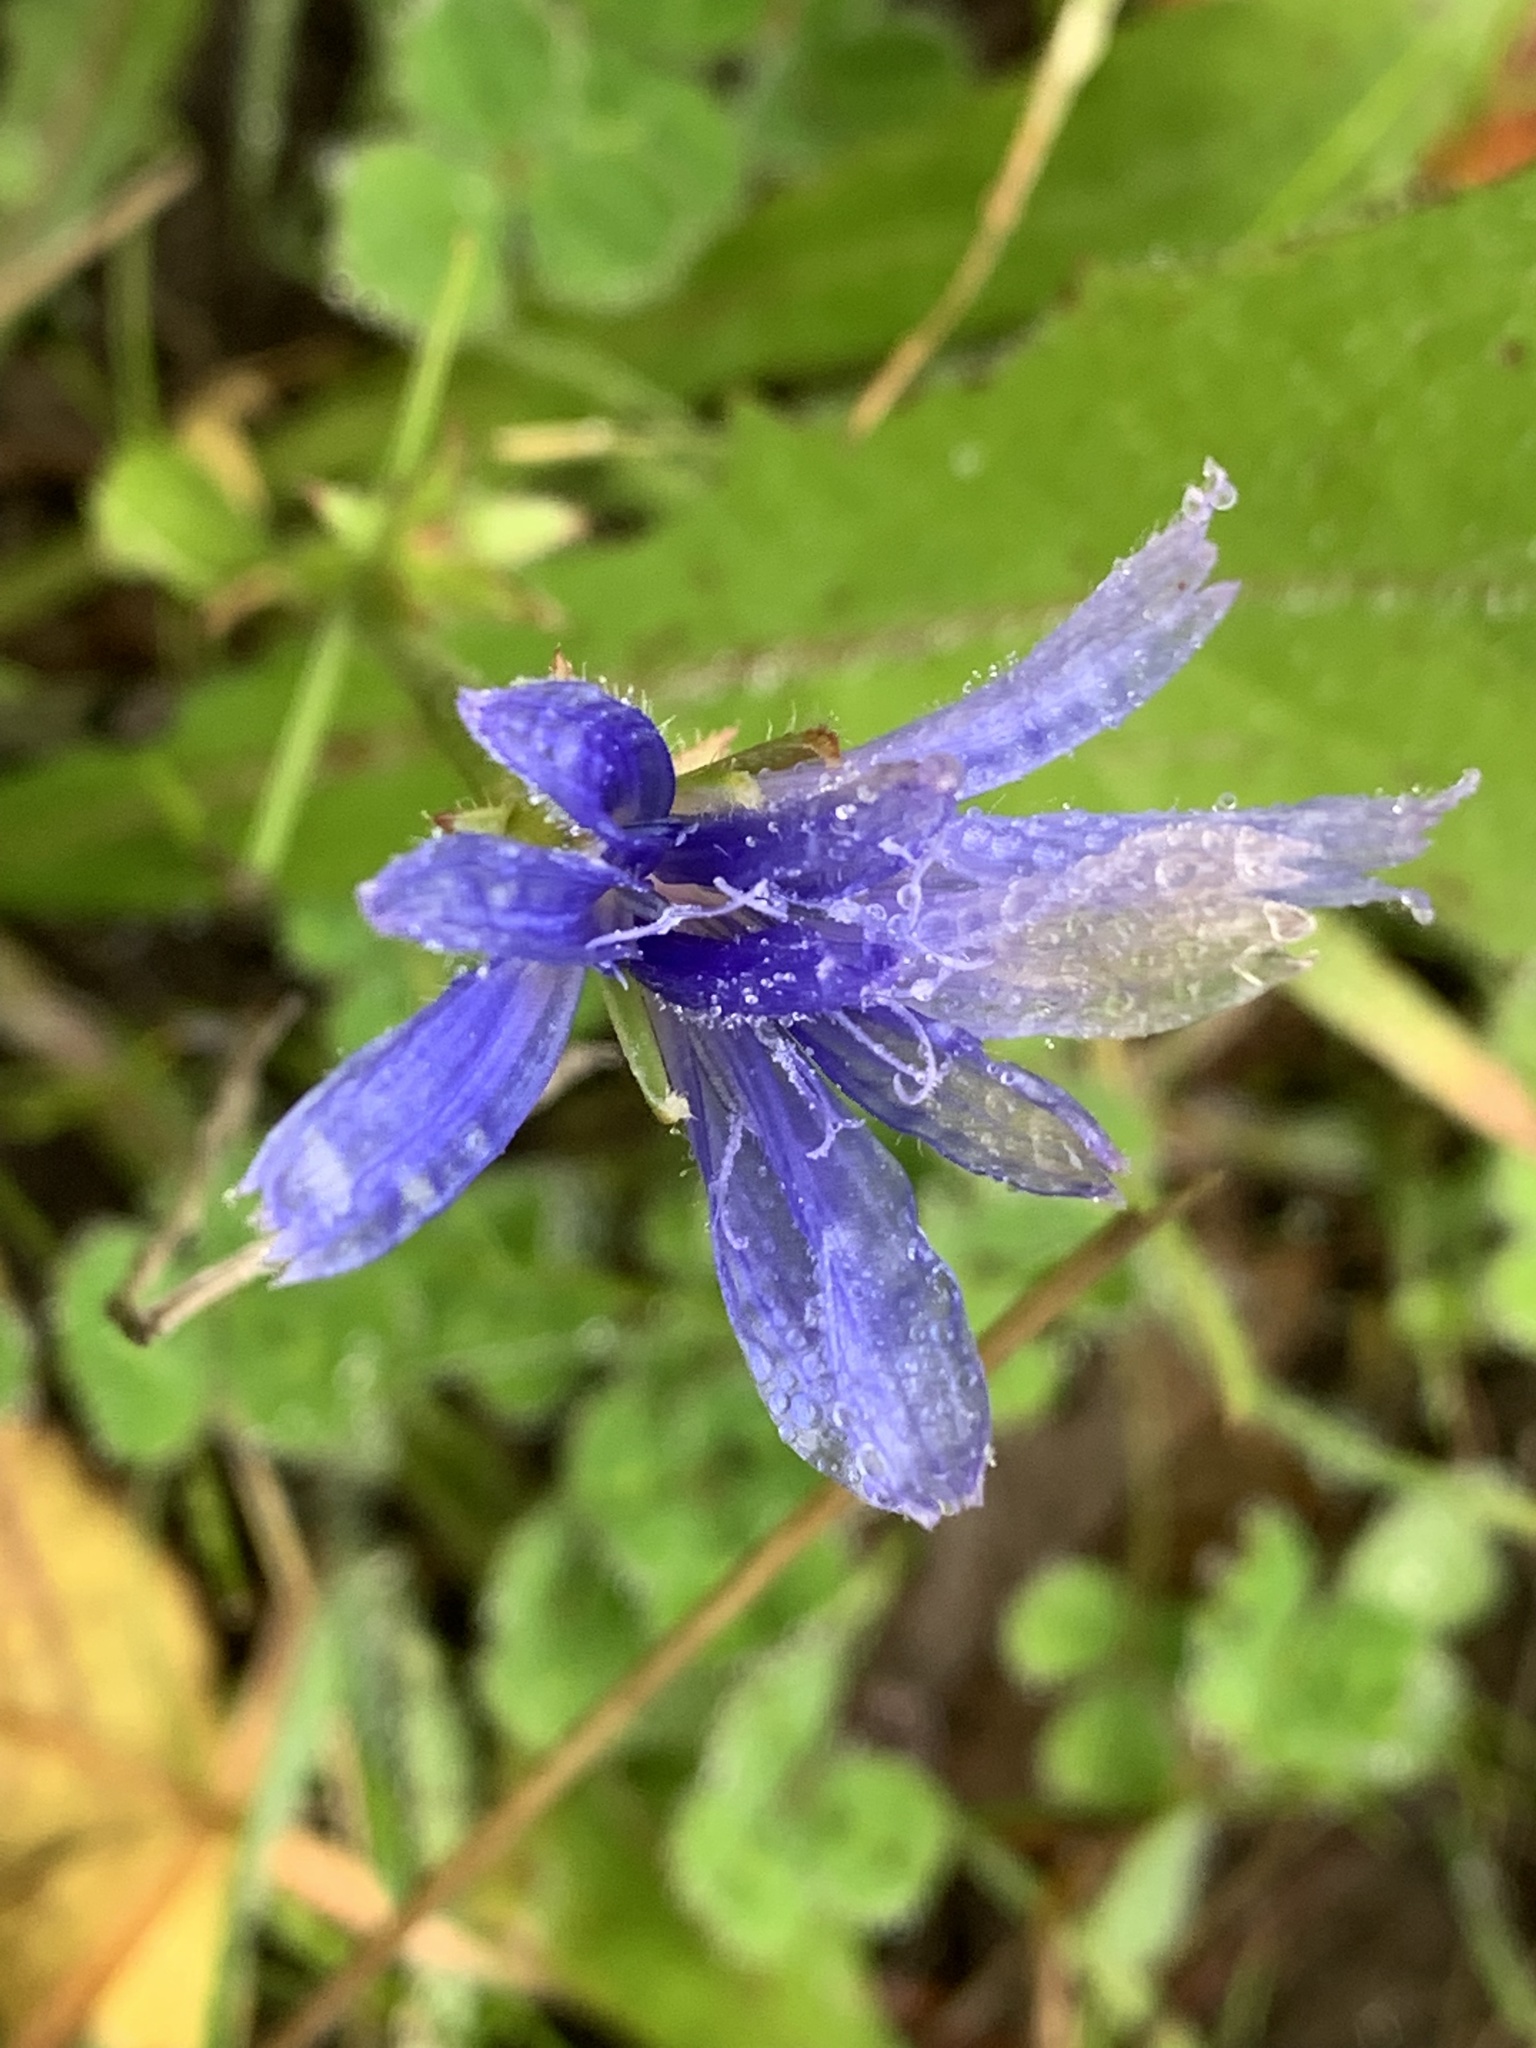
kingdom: Plantae
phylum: Tracheophyta
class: Magnoliopsida
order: Asterales
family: Asteraceae
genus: Cichorium
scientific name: Cichorium intybus
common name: Chicory
